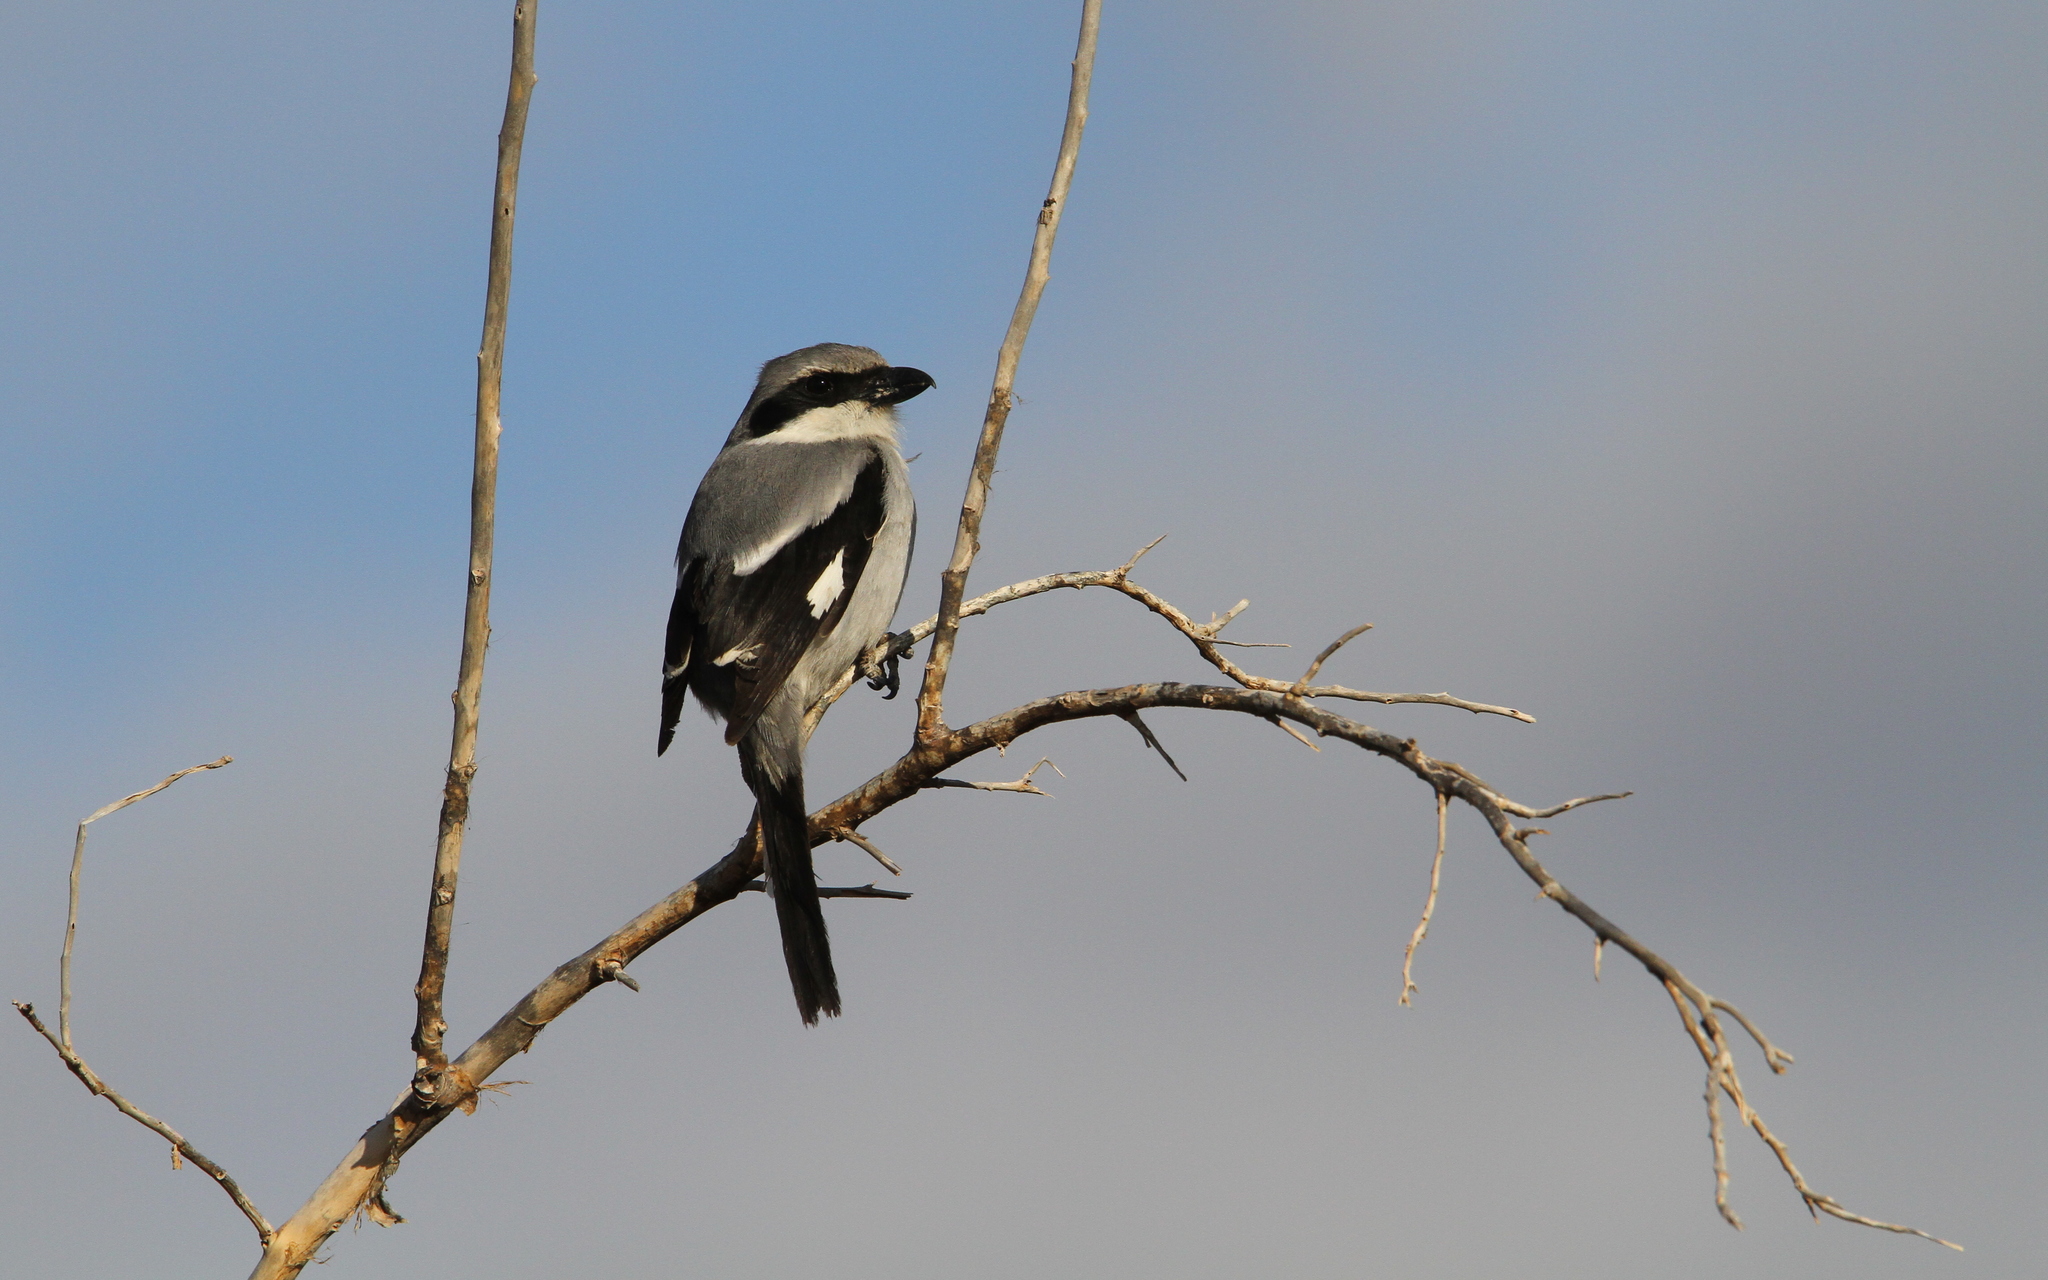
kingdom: Animalia
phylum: Chordata
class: Aves
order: Passeriformes
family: Laniidae
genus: Lanius
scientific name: Lanius excubitor
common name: Great grey shrike
